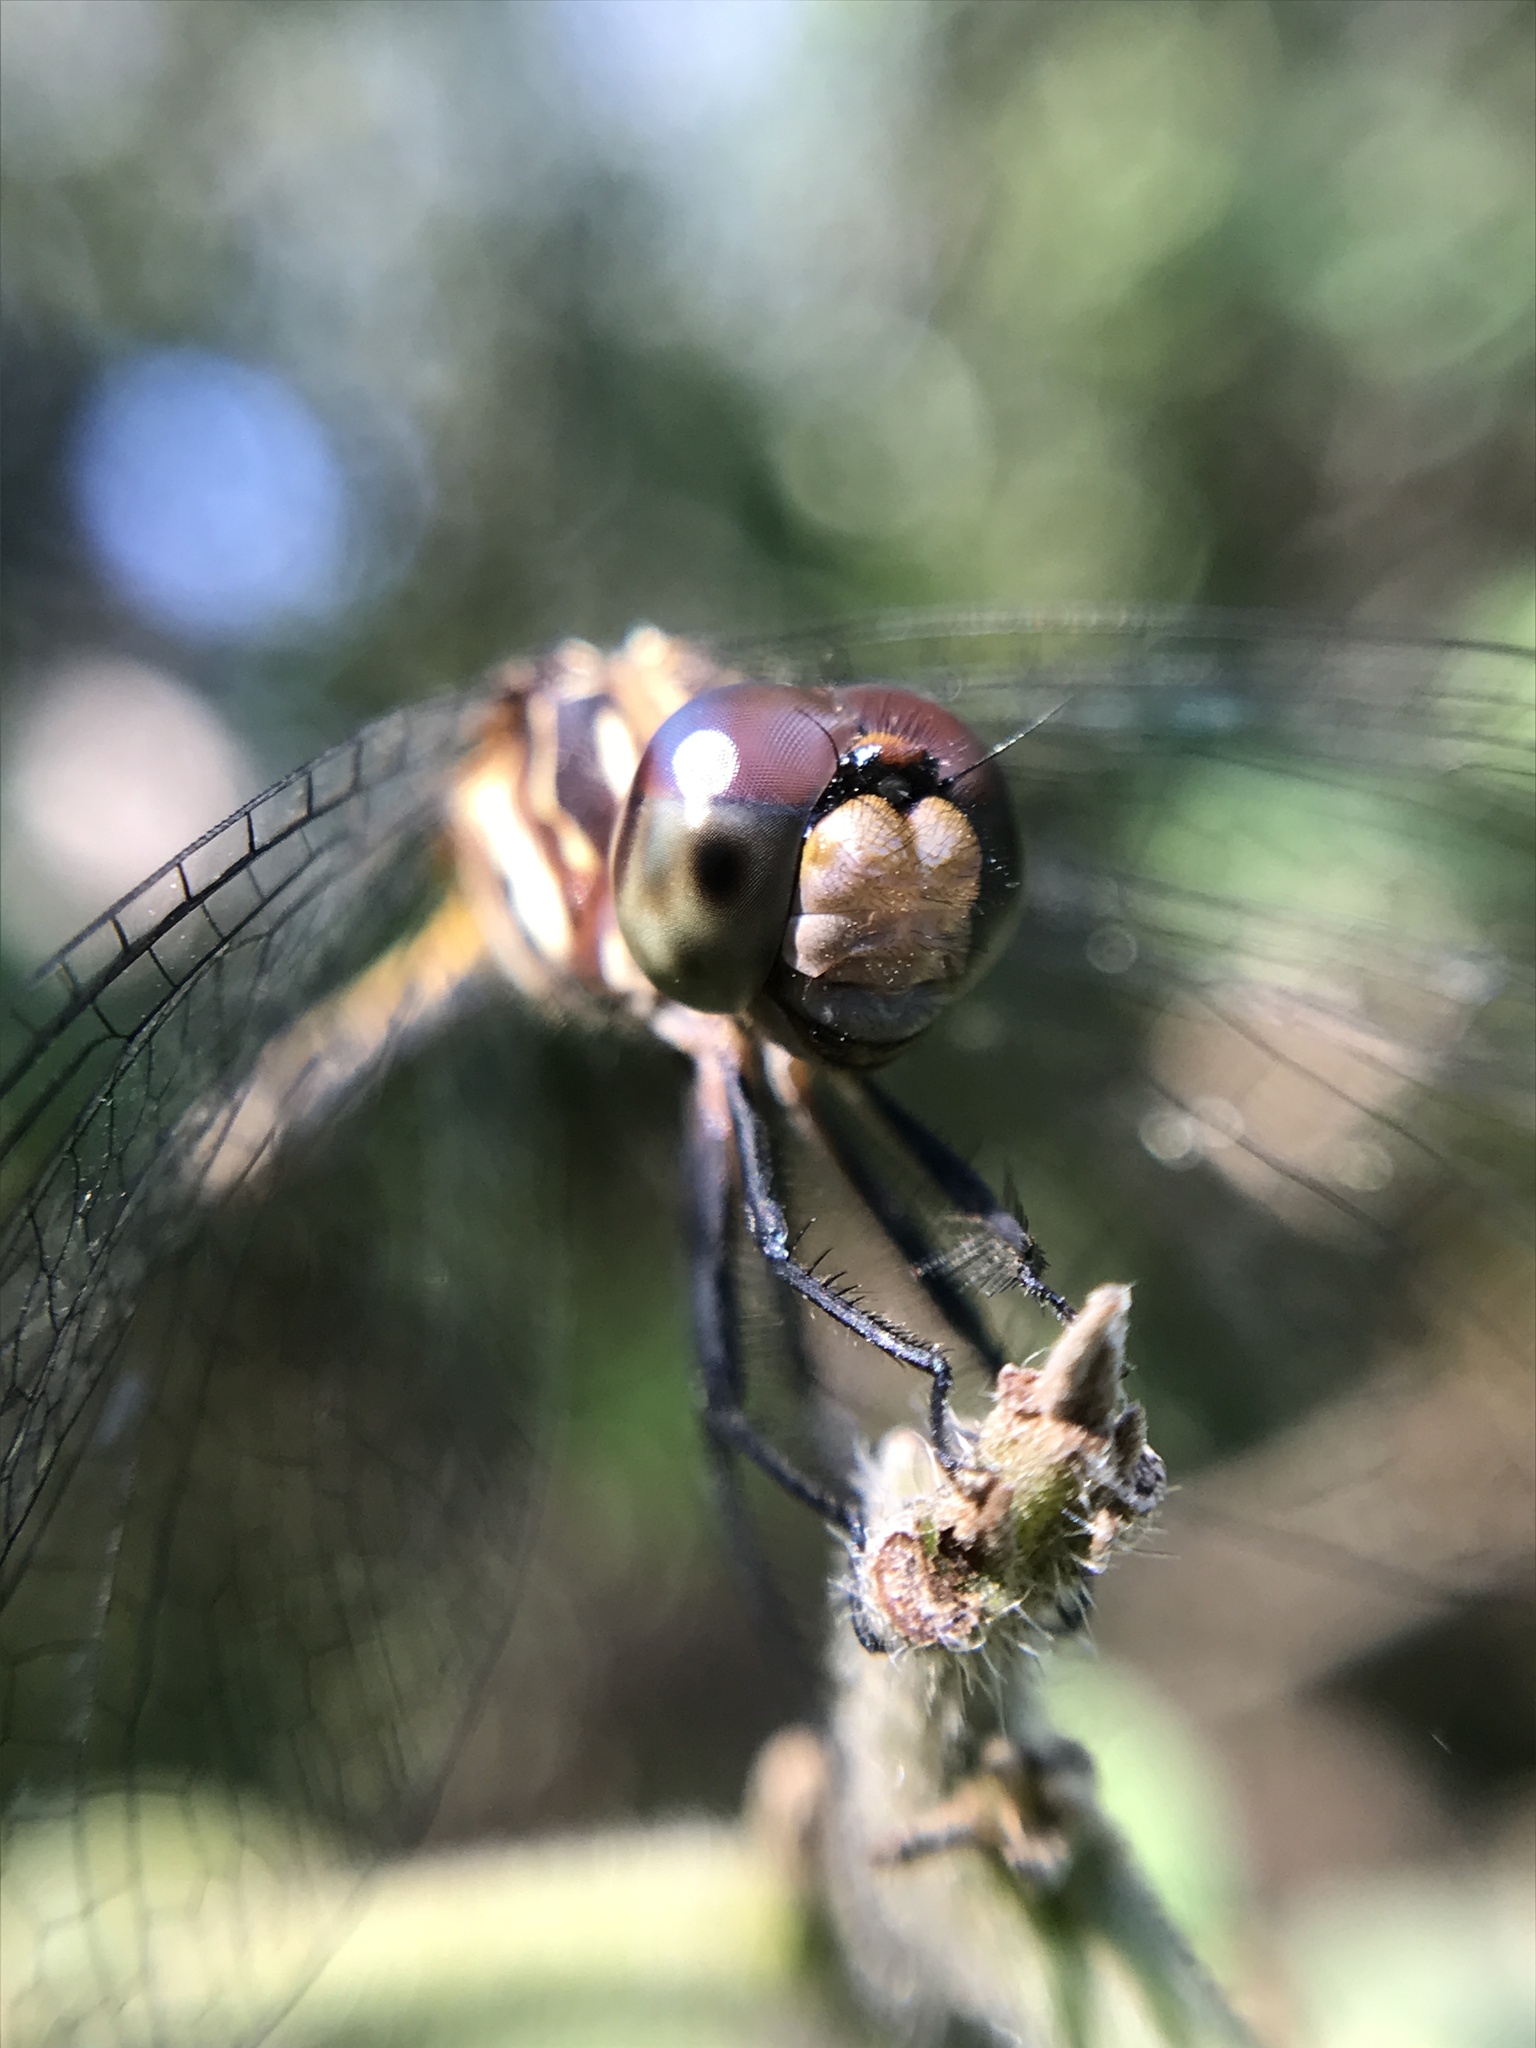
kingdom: Animalia
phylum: Arthropoda
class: Insecta
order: Odonata
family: Libellulidae
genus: Erythemis
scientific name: Erythemis plebeja
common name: Pin-tailed pondhawk
